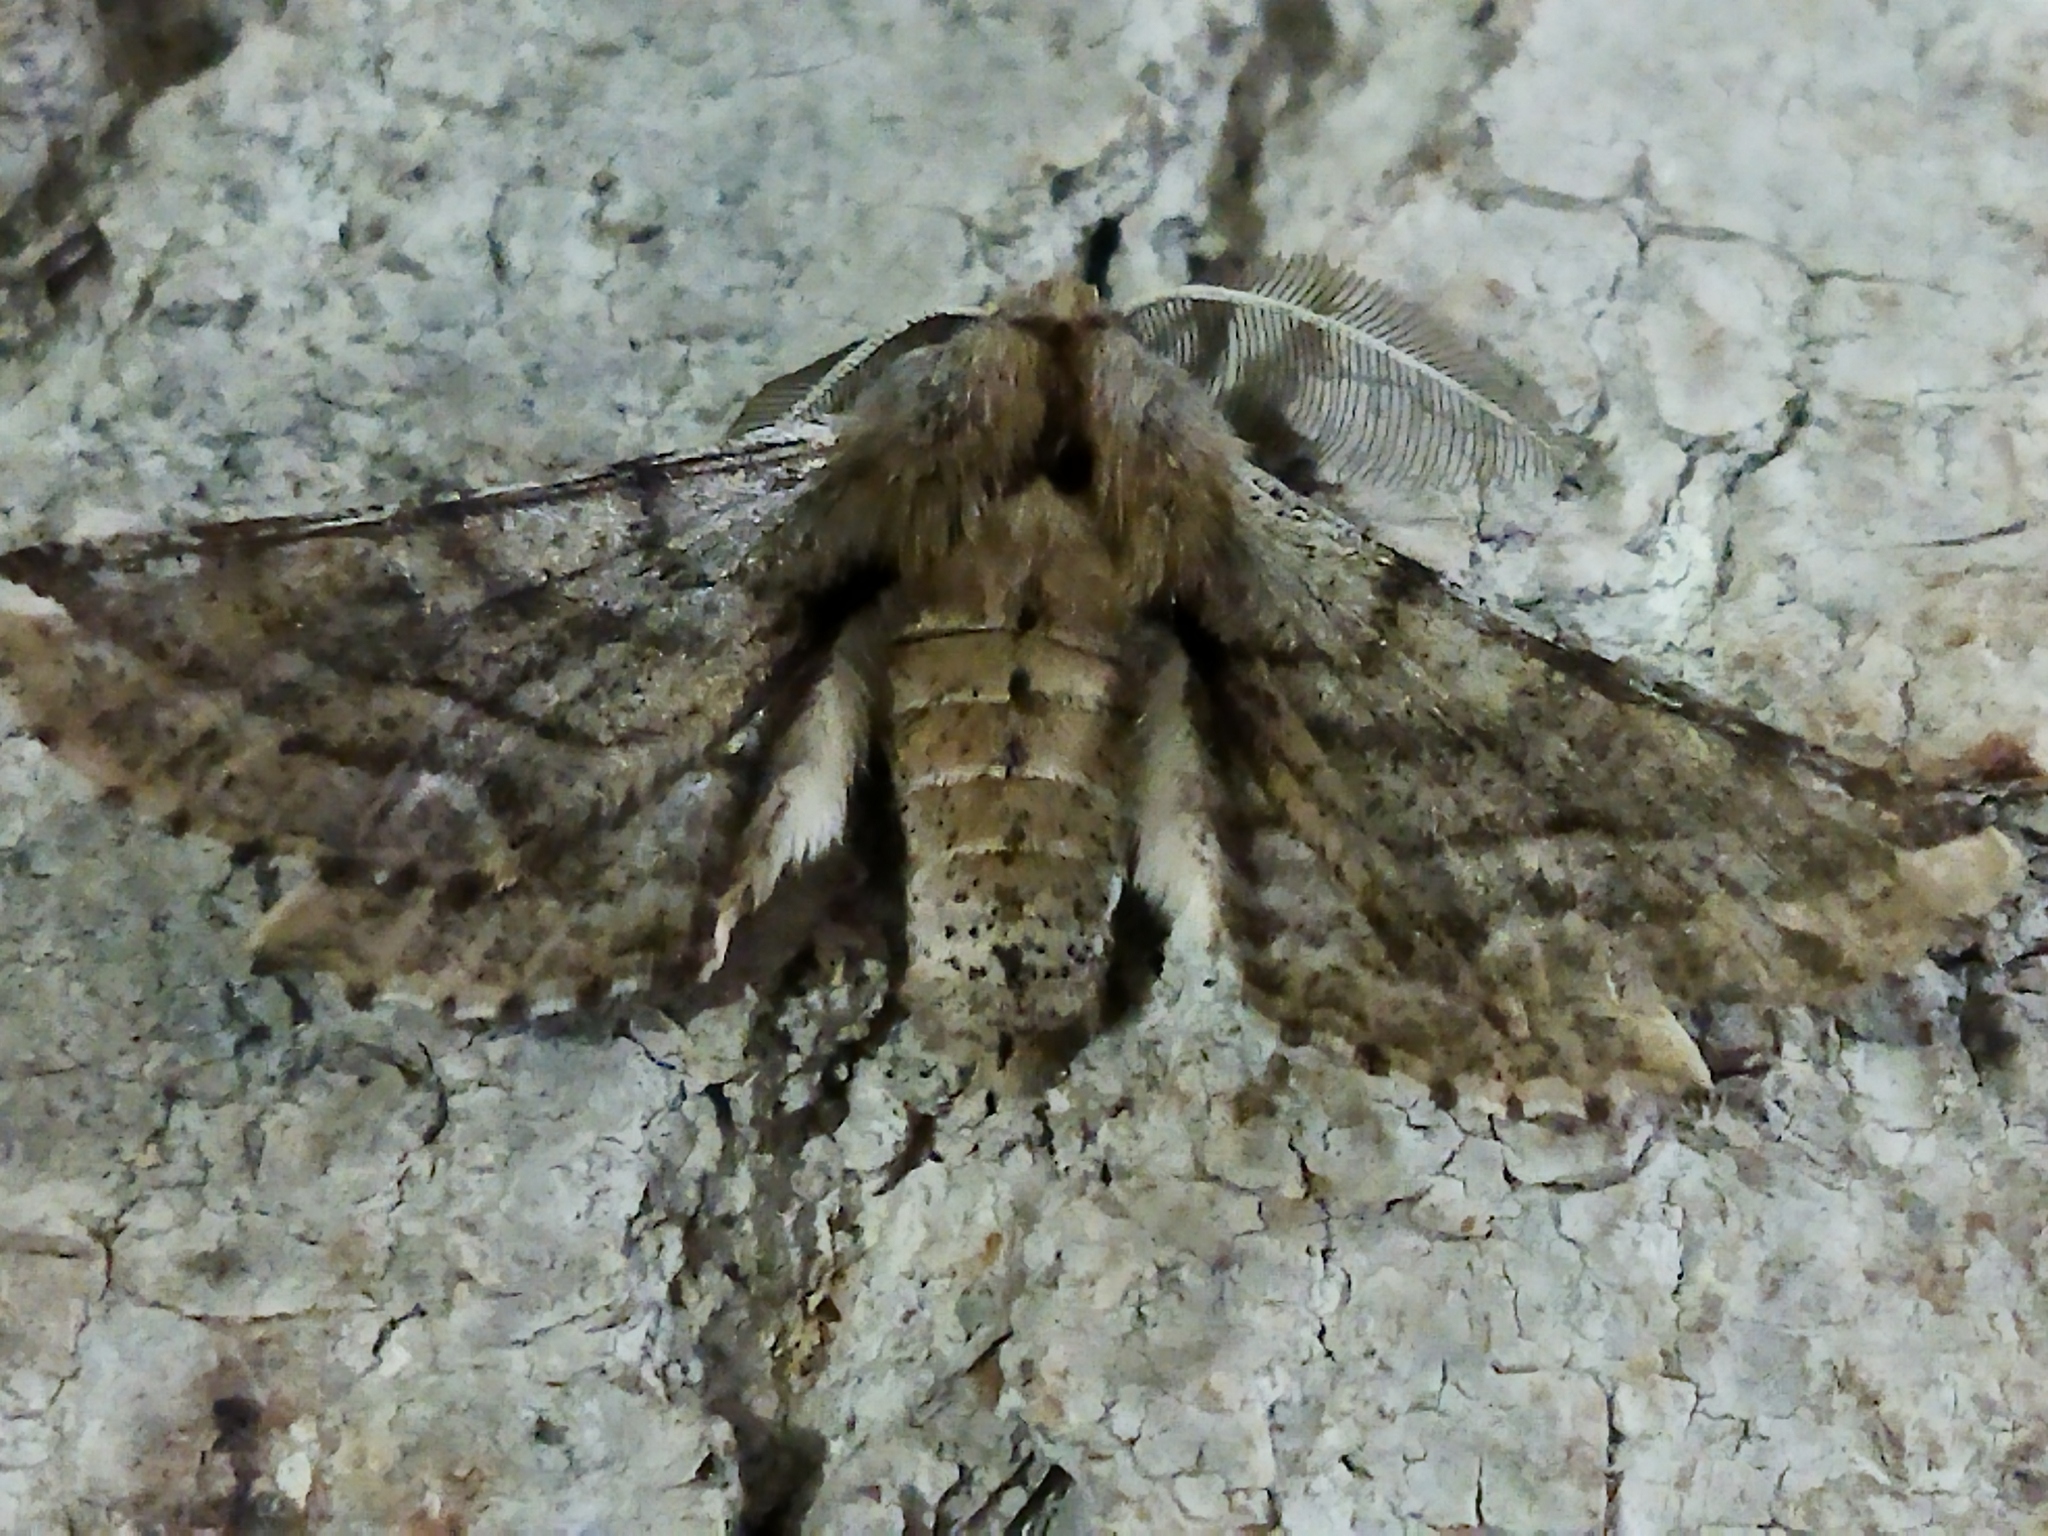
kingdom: Animalia
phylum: Arthropoda
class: Insecta
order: Lepidoptera
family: Geometridae
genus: Apochima
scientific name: Apochima flabellaria
